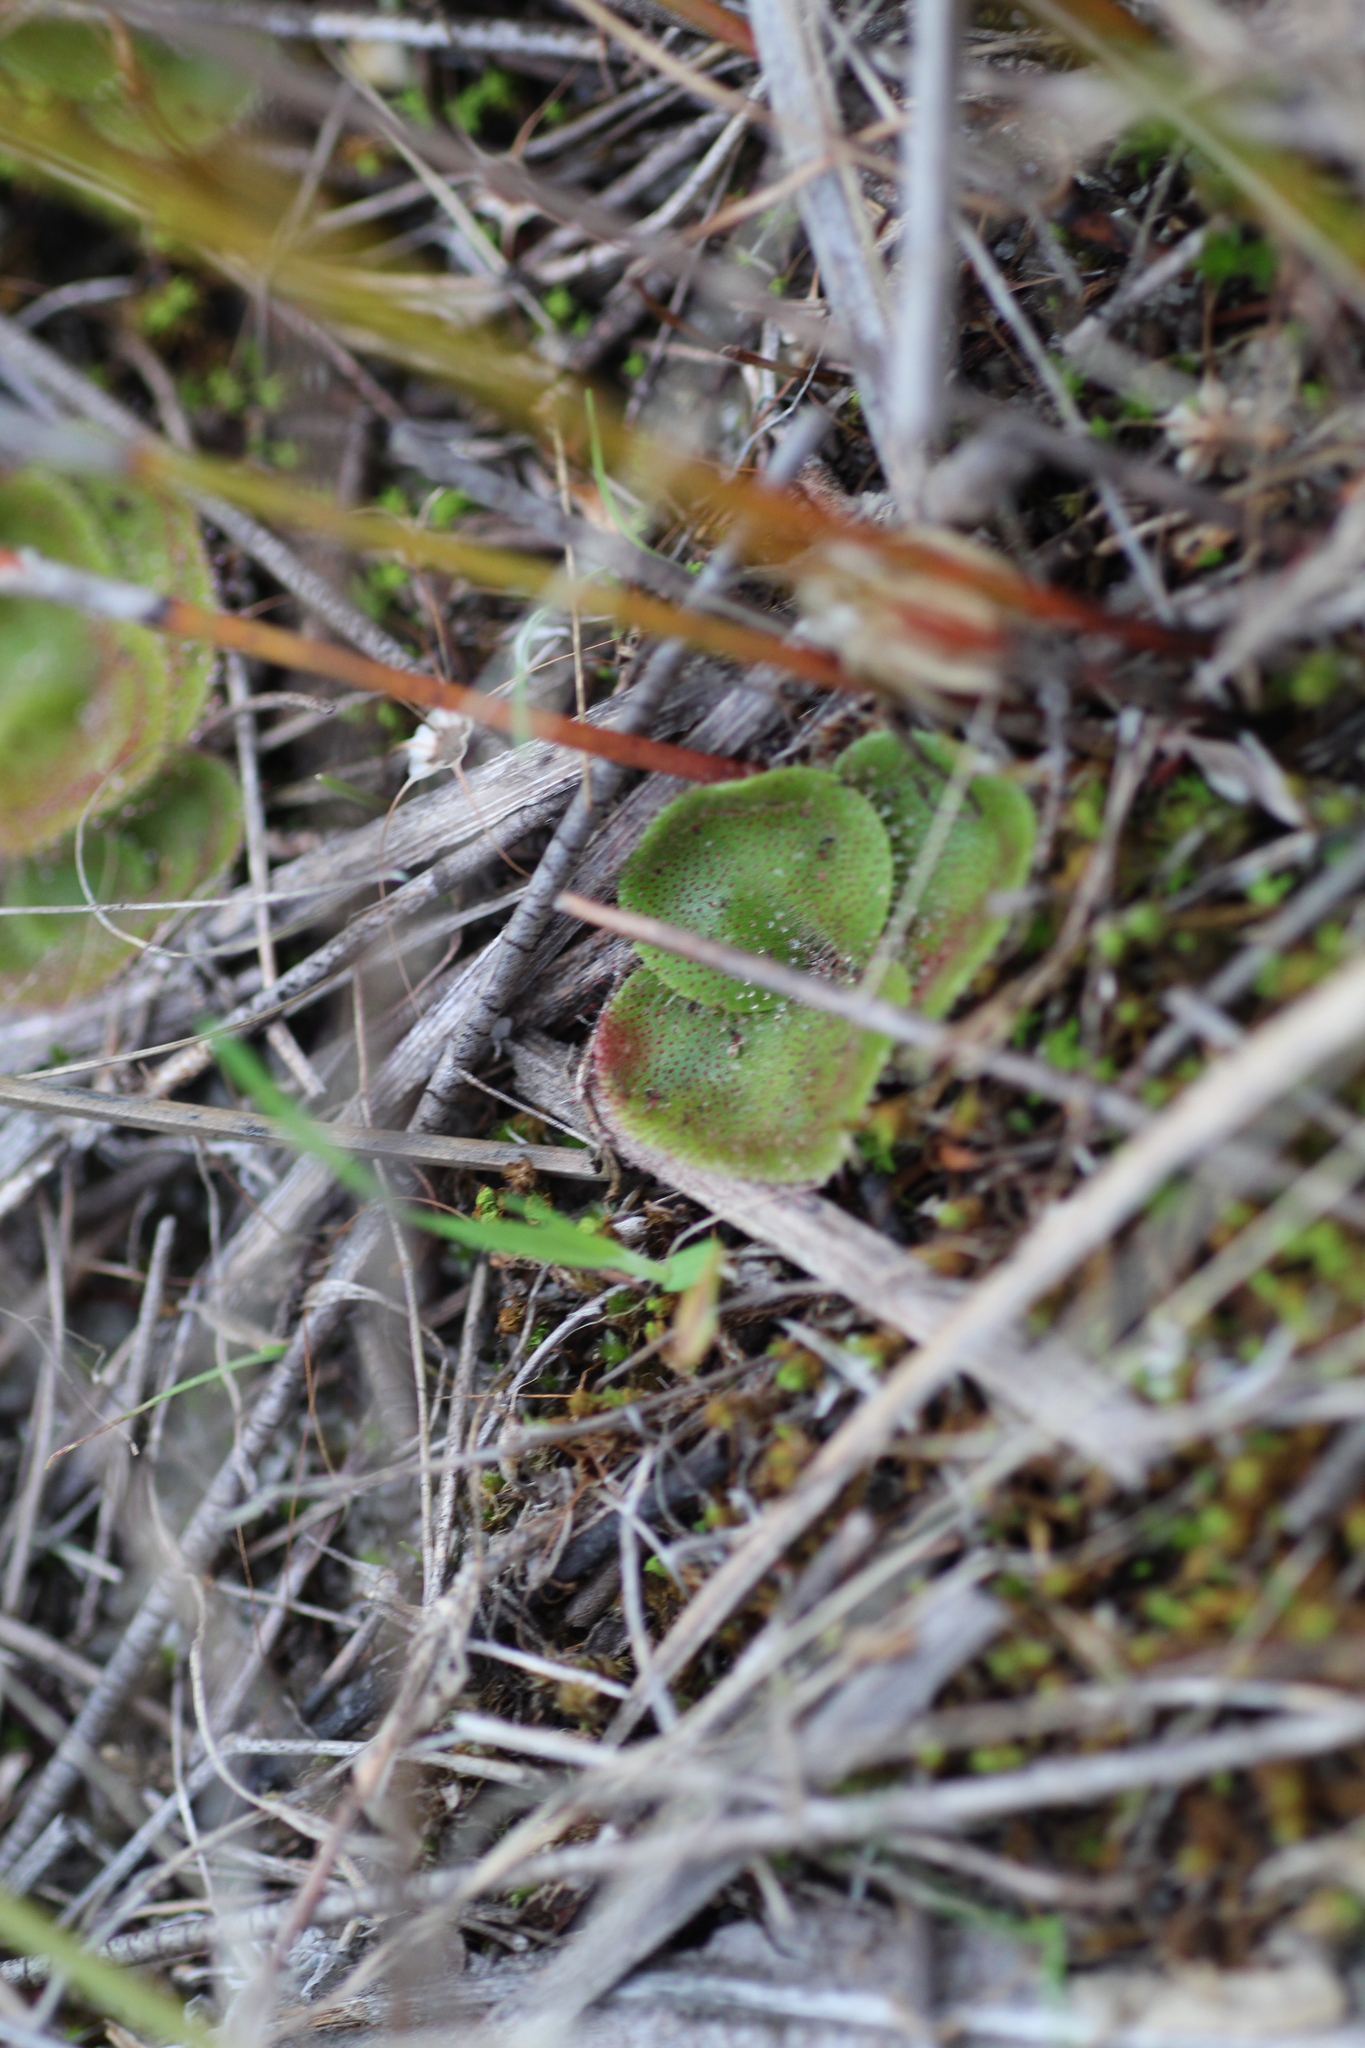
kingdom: Plantae
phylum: Tracheophyta
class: Magnoliopsida
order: Caryophyllales
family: Droseraceae
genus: Drosera
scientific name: Drosera erythrorhiza
